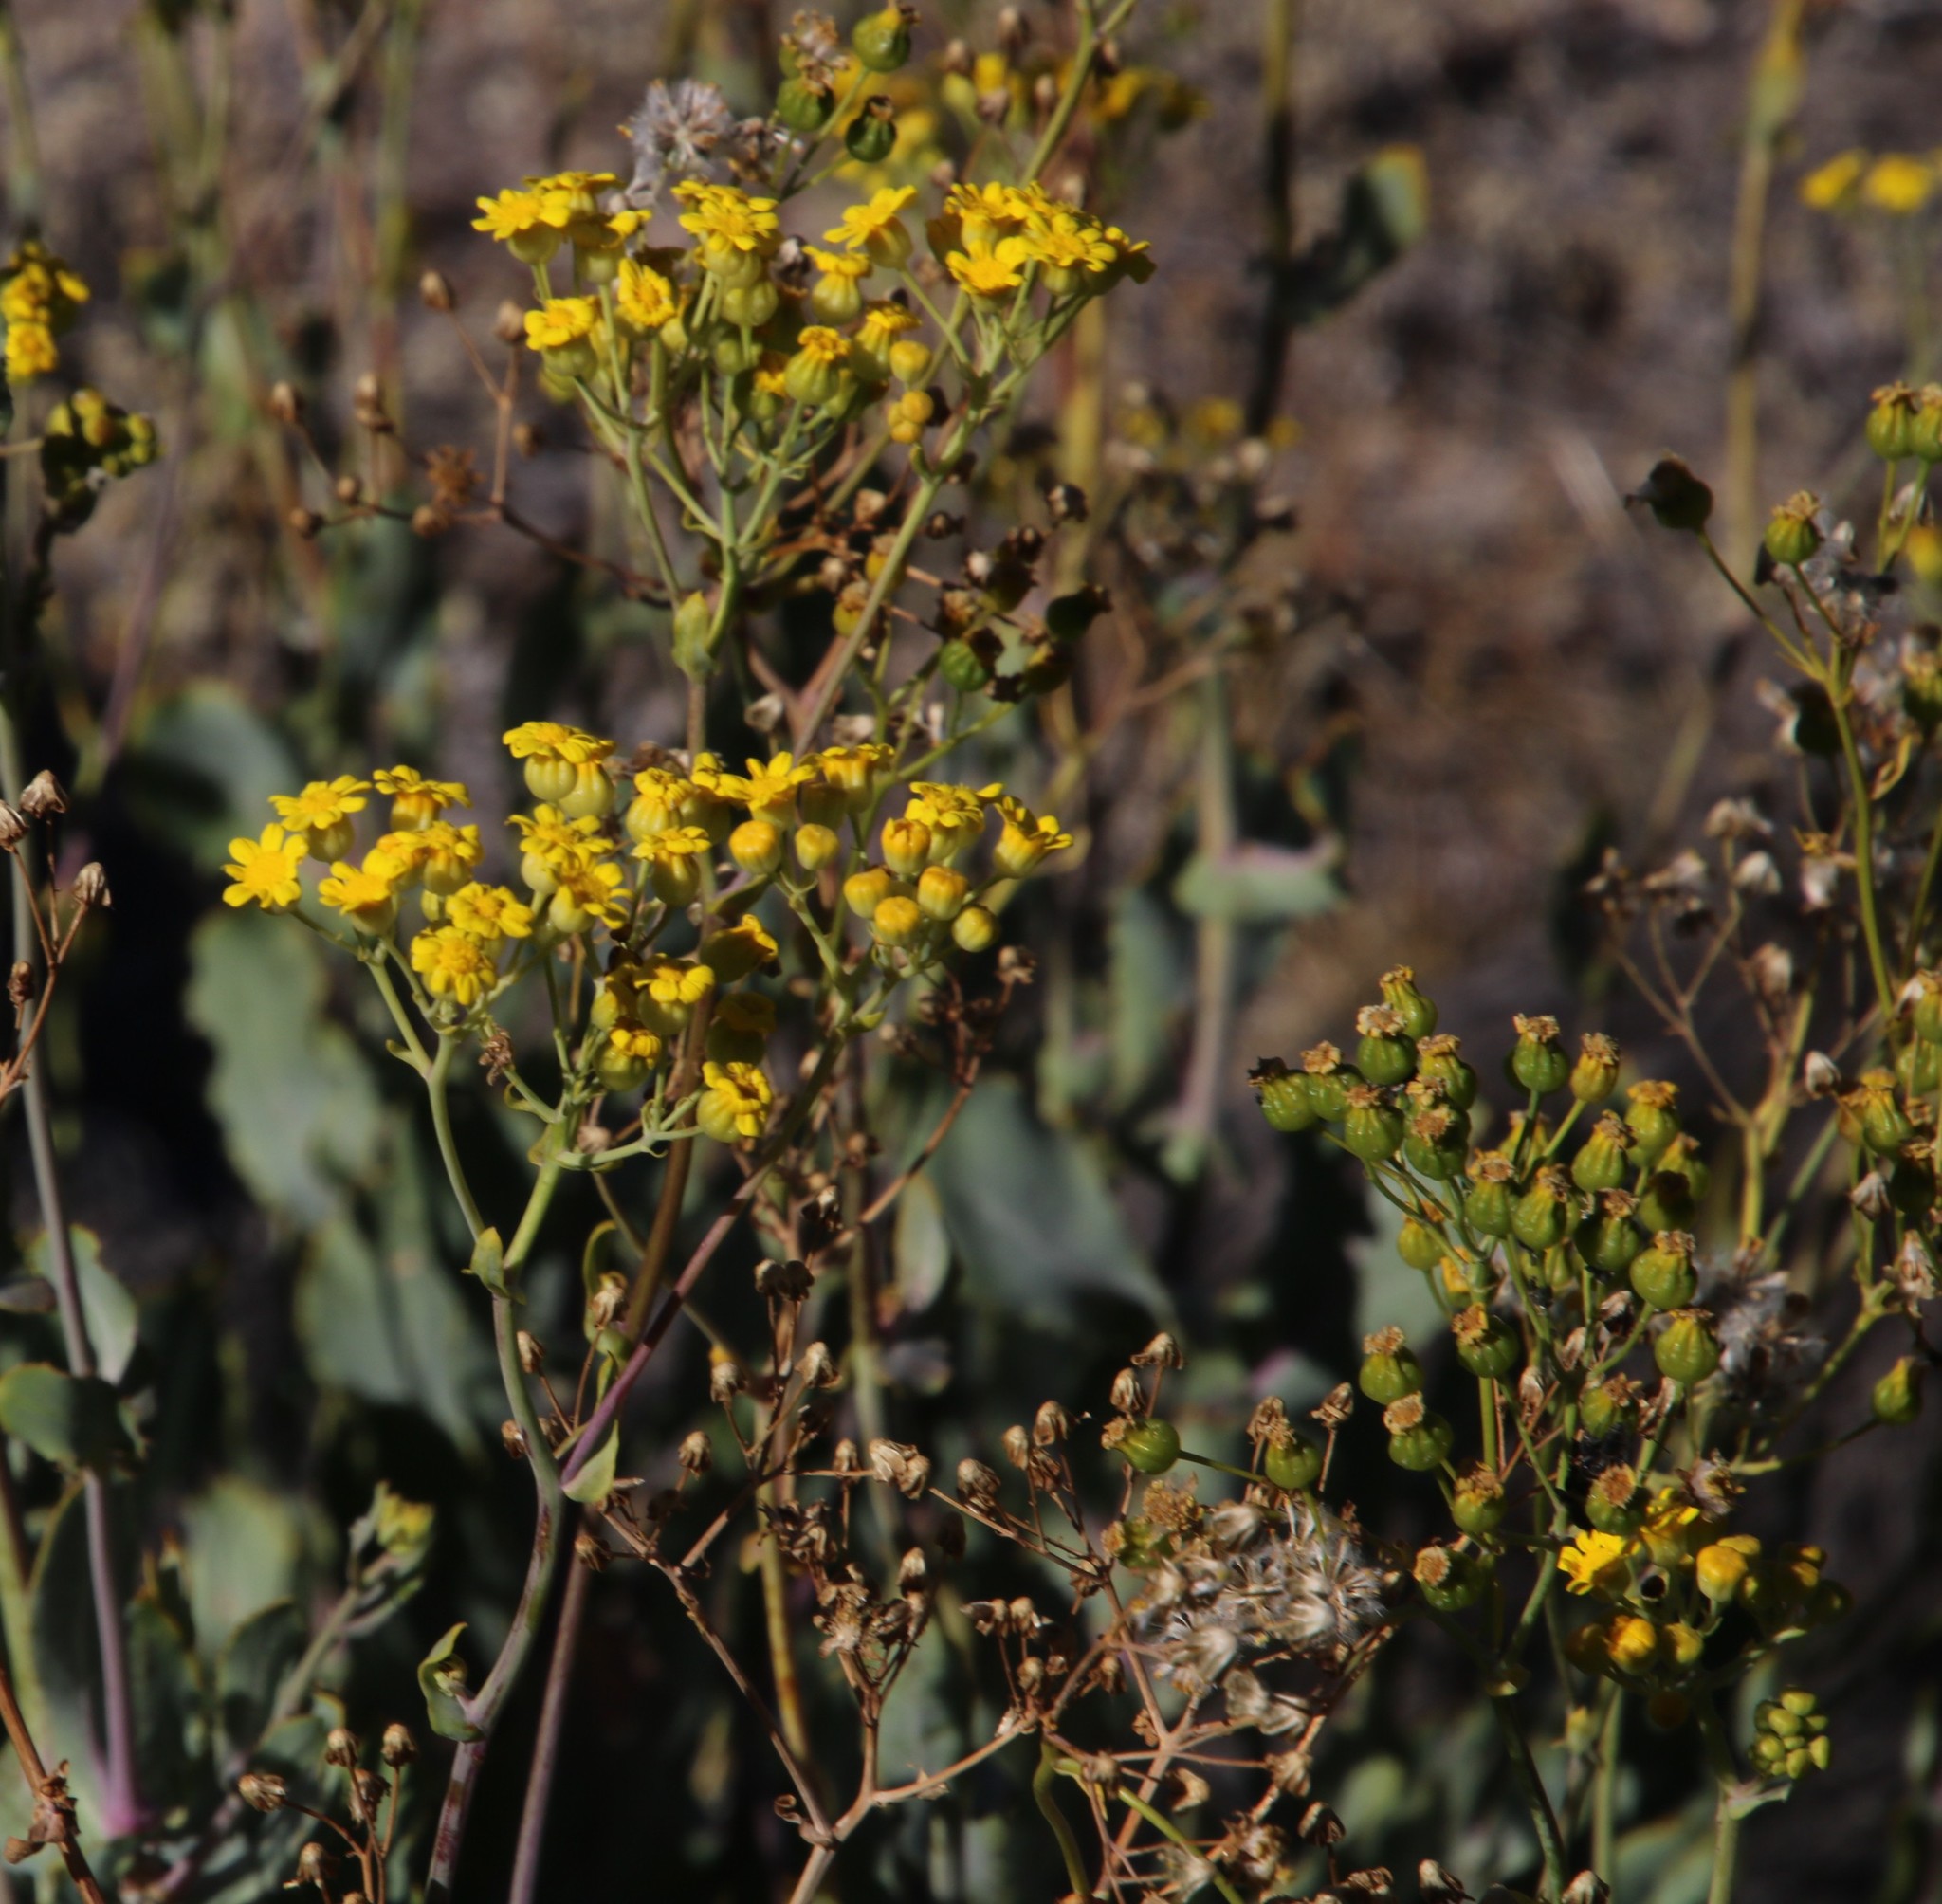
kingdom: Plantae
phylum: Tracheophyta
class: Magnoliopsida
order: Asterales
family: Asteraceae
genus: Othonna
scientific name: Othonna parviflora
